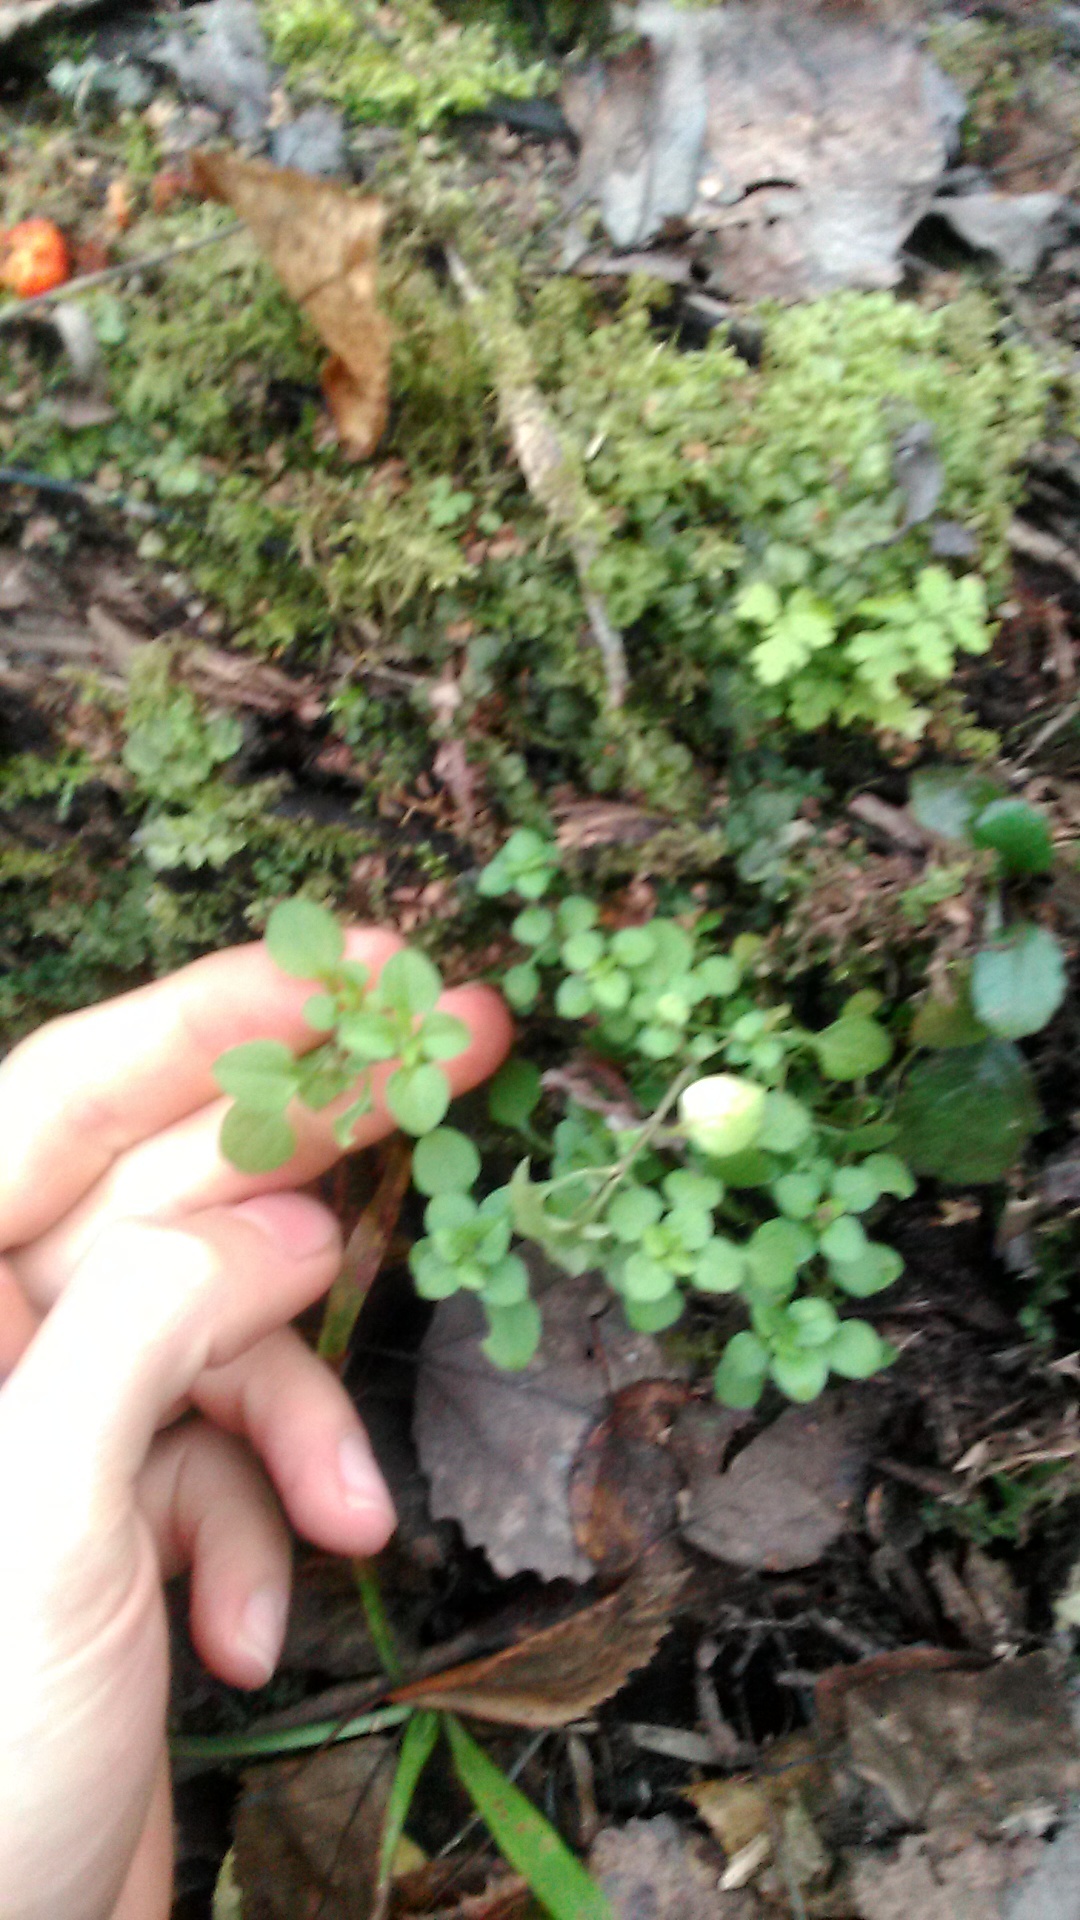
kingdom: Plantae
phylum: Tracheophyta
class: Magnoliopsida
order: Caryophyllales
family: Caryophyllaceae
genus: Moehringia
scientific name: Moehringia trinervia
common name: Three-nerved sandwort
